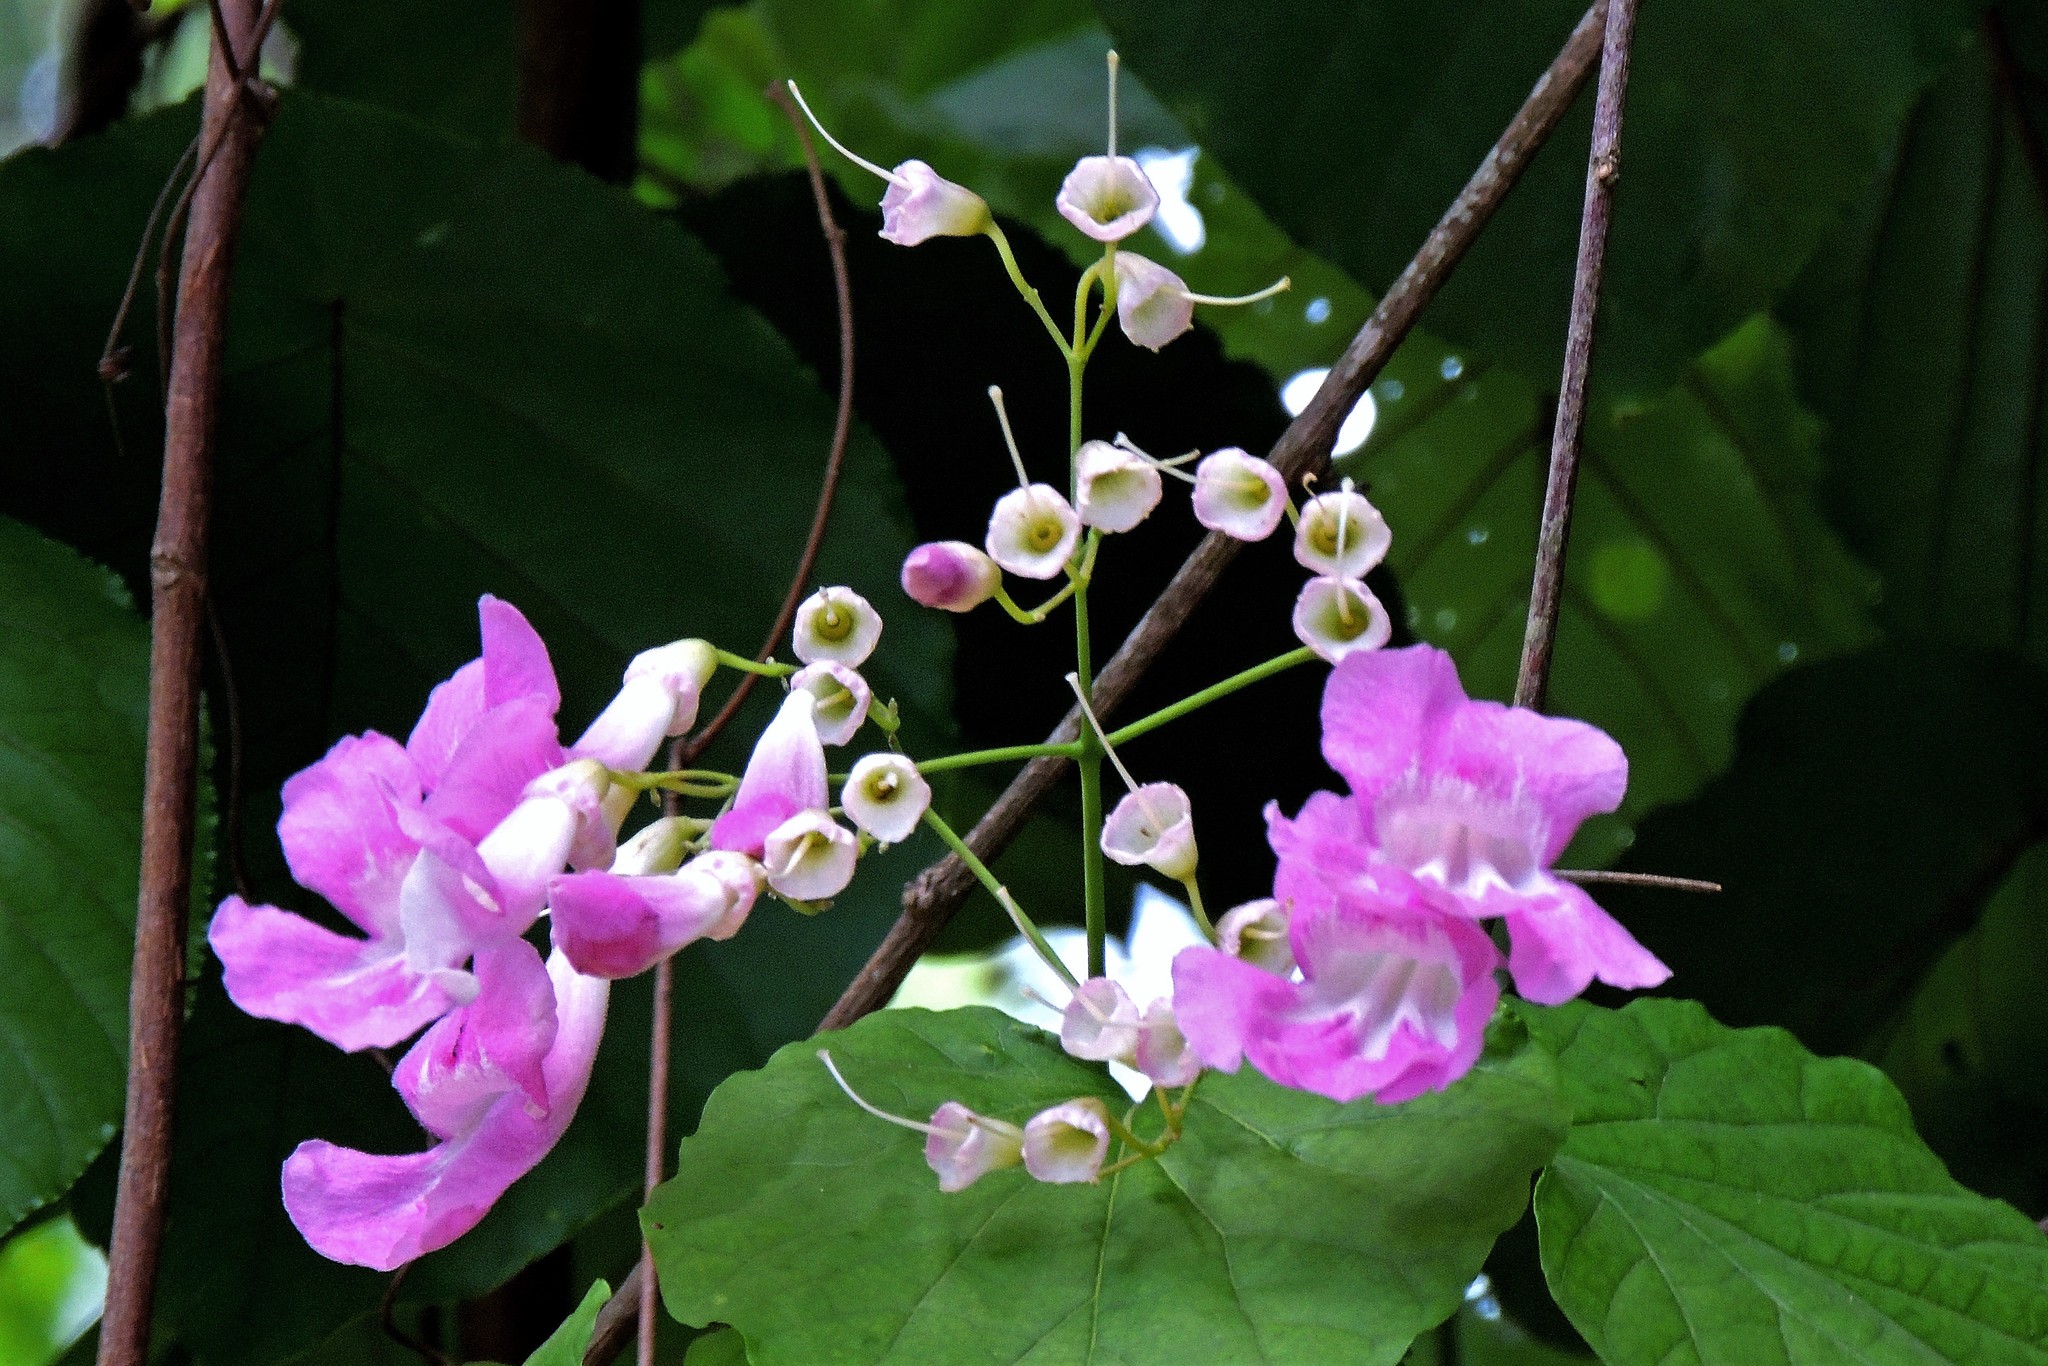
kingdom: Plantae
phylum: Tracheophyta
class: Magnoliopsida
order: Lamiales
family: Bignoniaceae
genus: Tanaecium
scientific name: Tanaecium selloi
